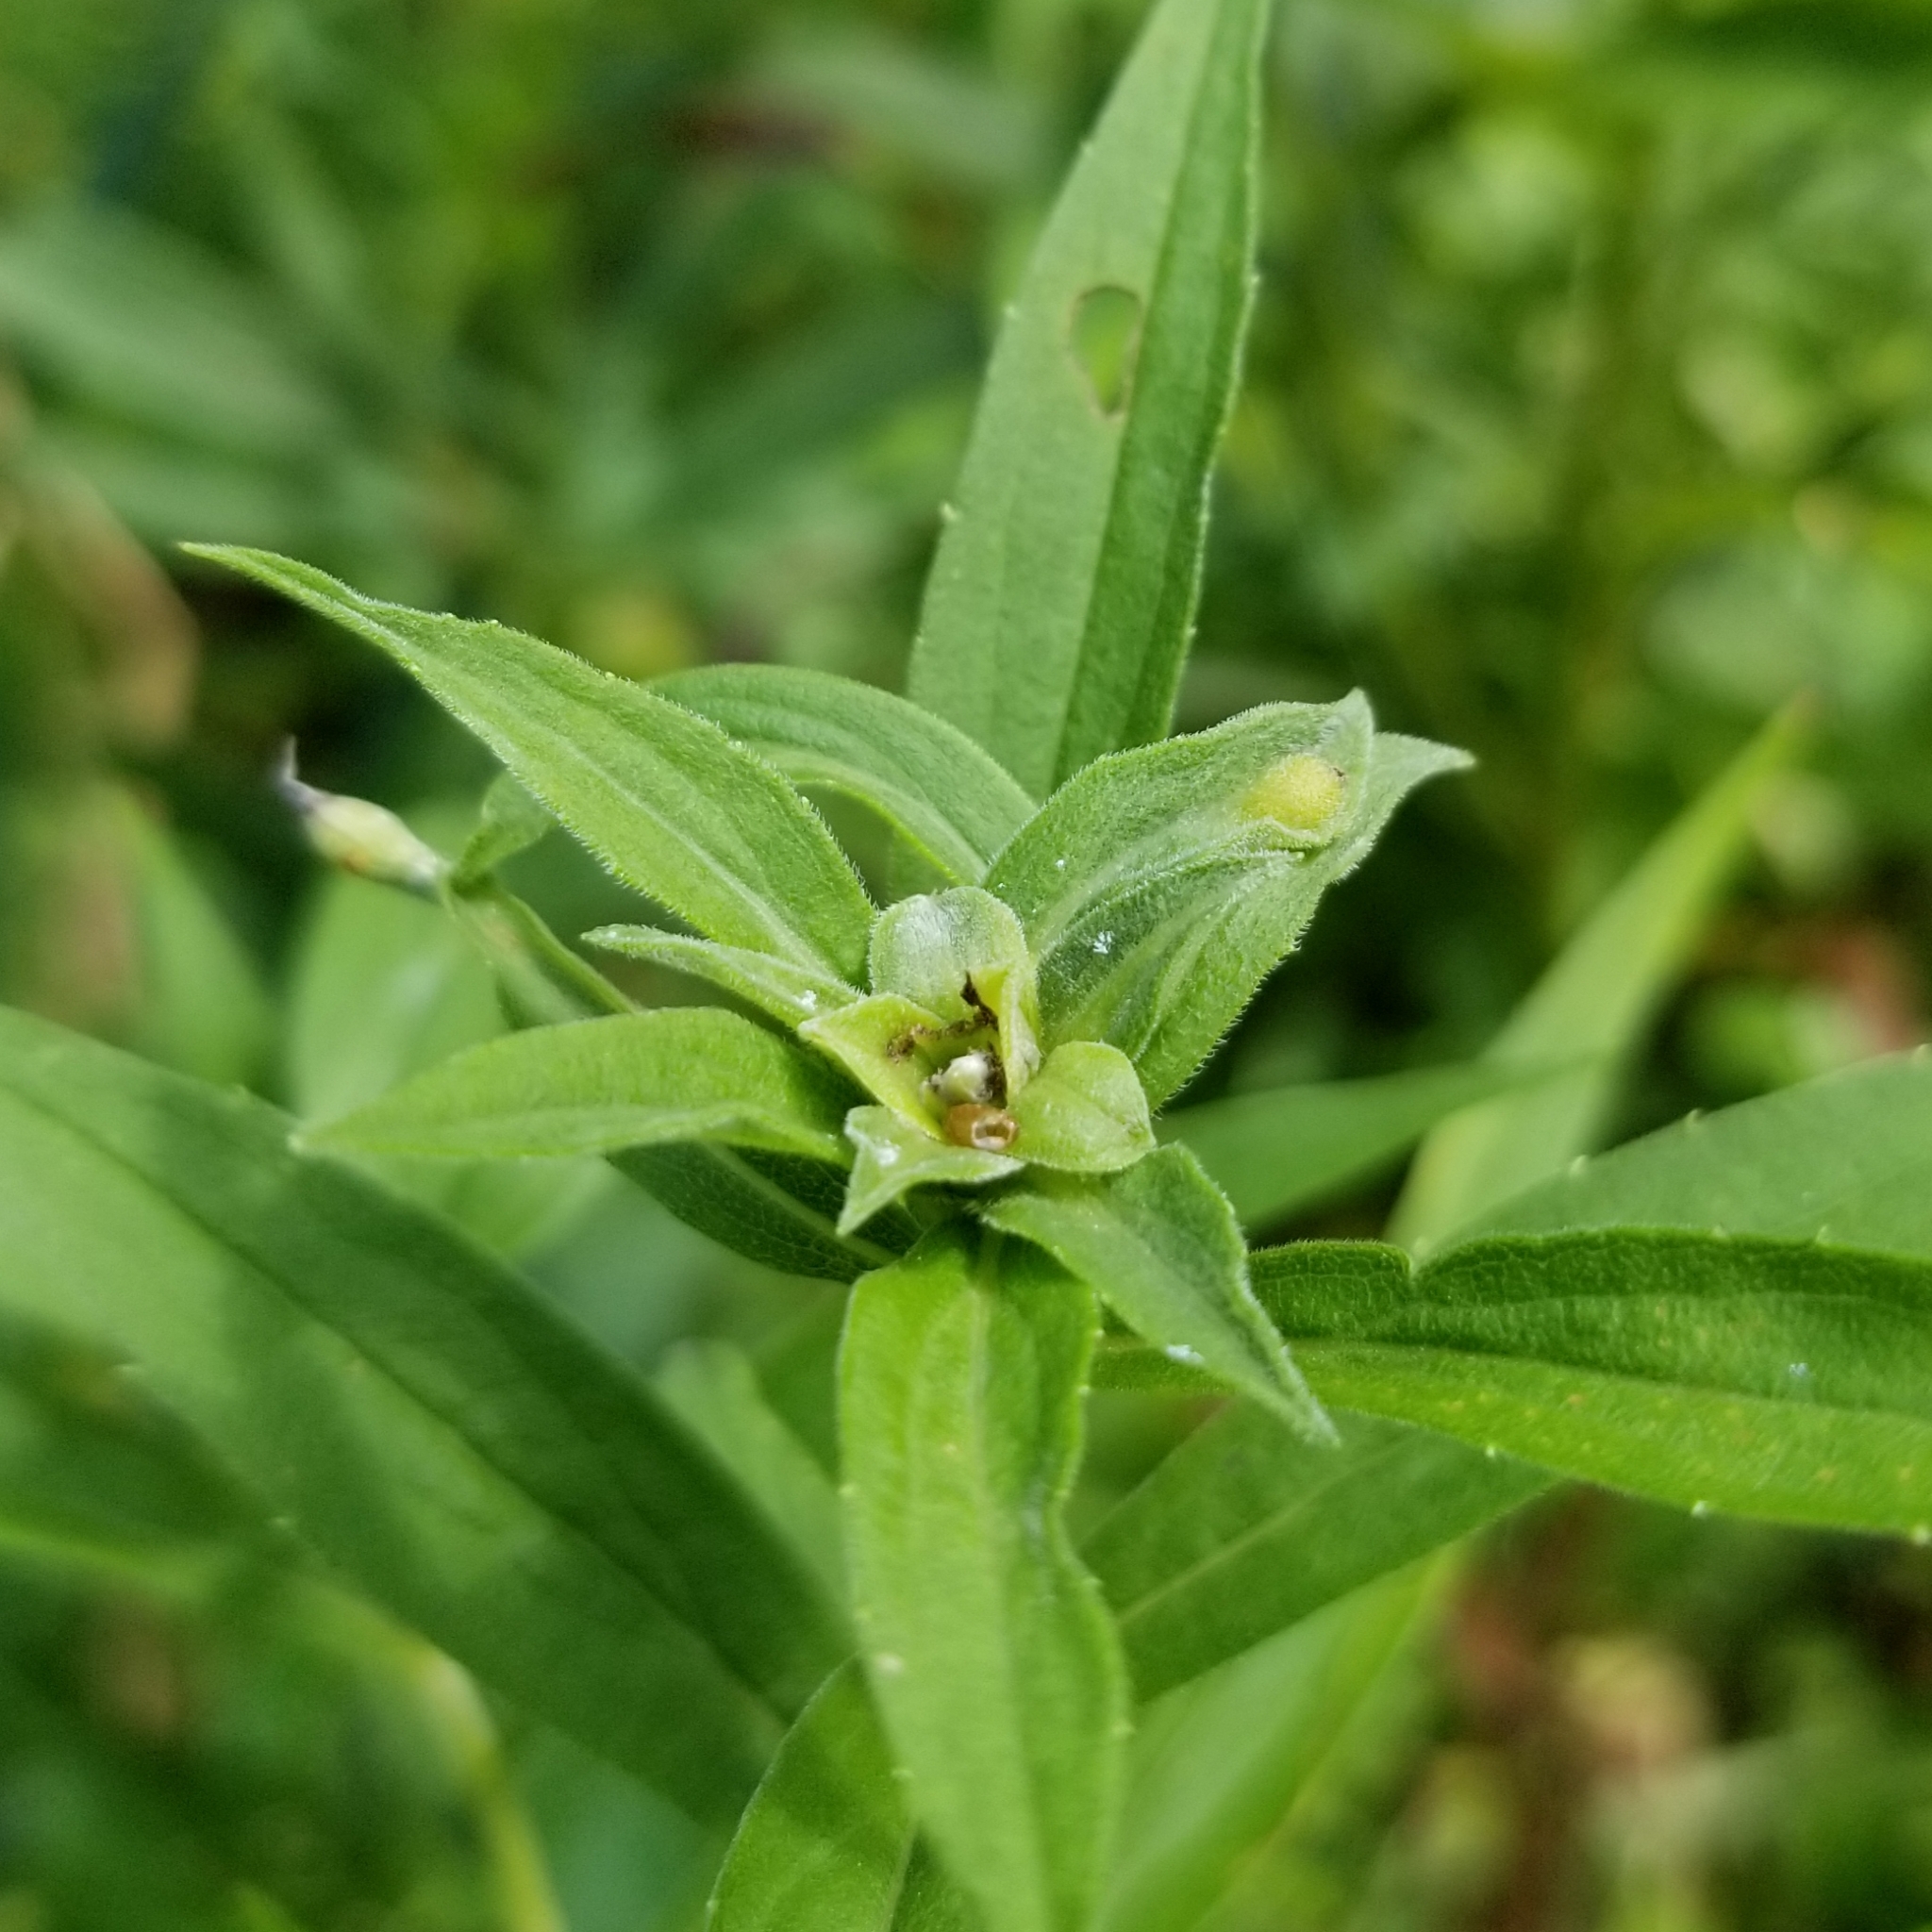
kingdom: Animalia
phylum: Arthropoda
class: Insecta
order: Diptera
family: Cecidomyiidae
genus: Asphondylia
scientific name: Asphondylia solidaginis
